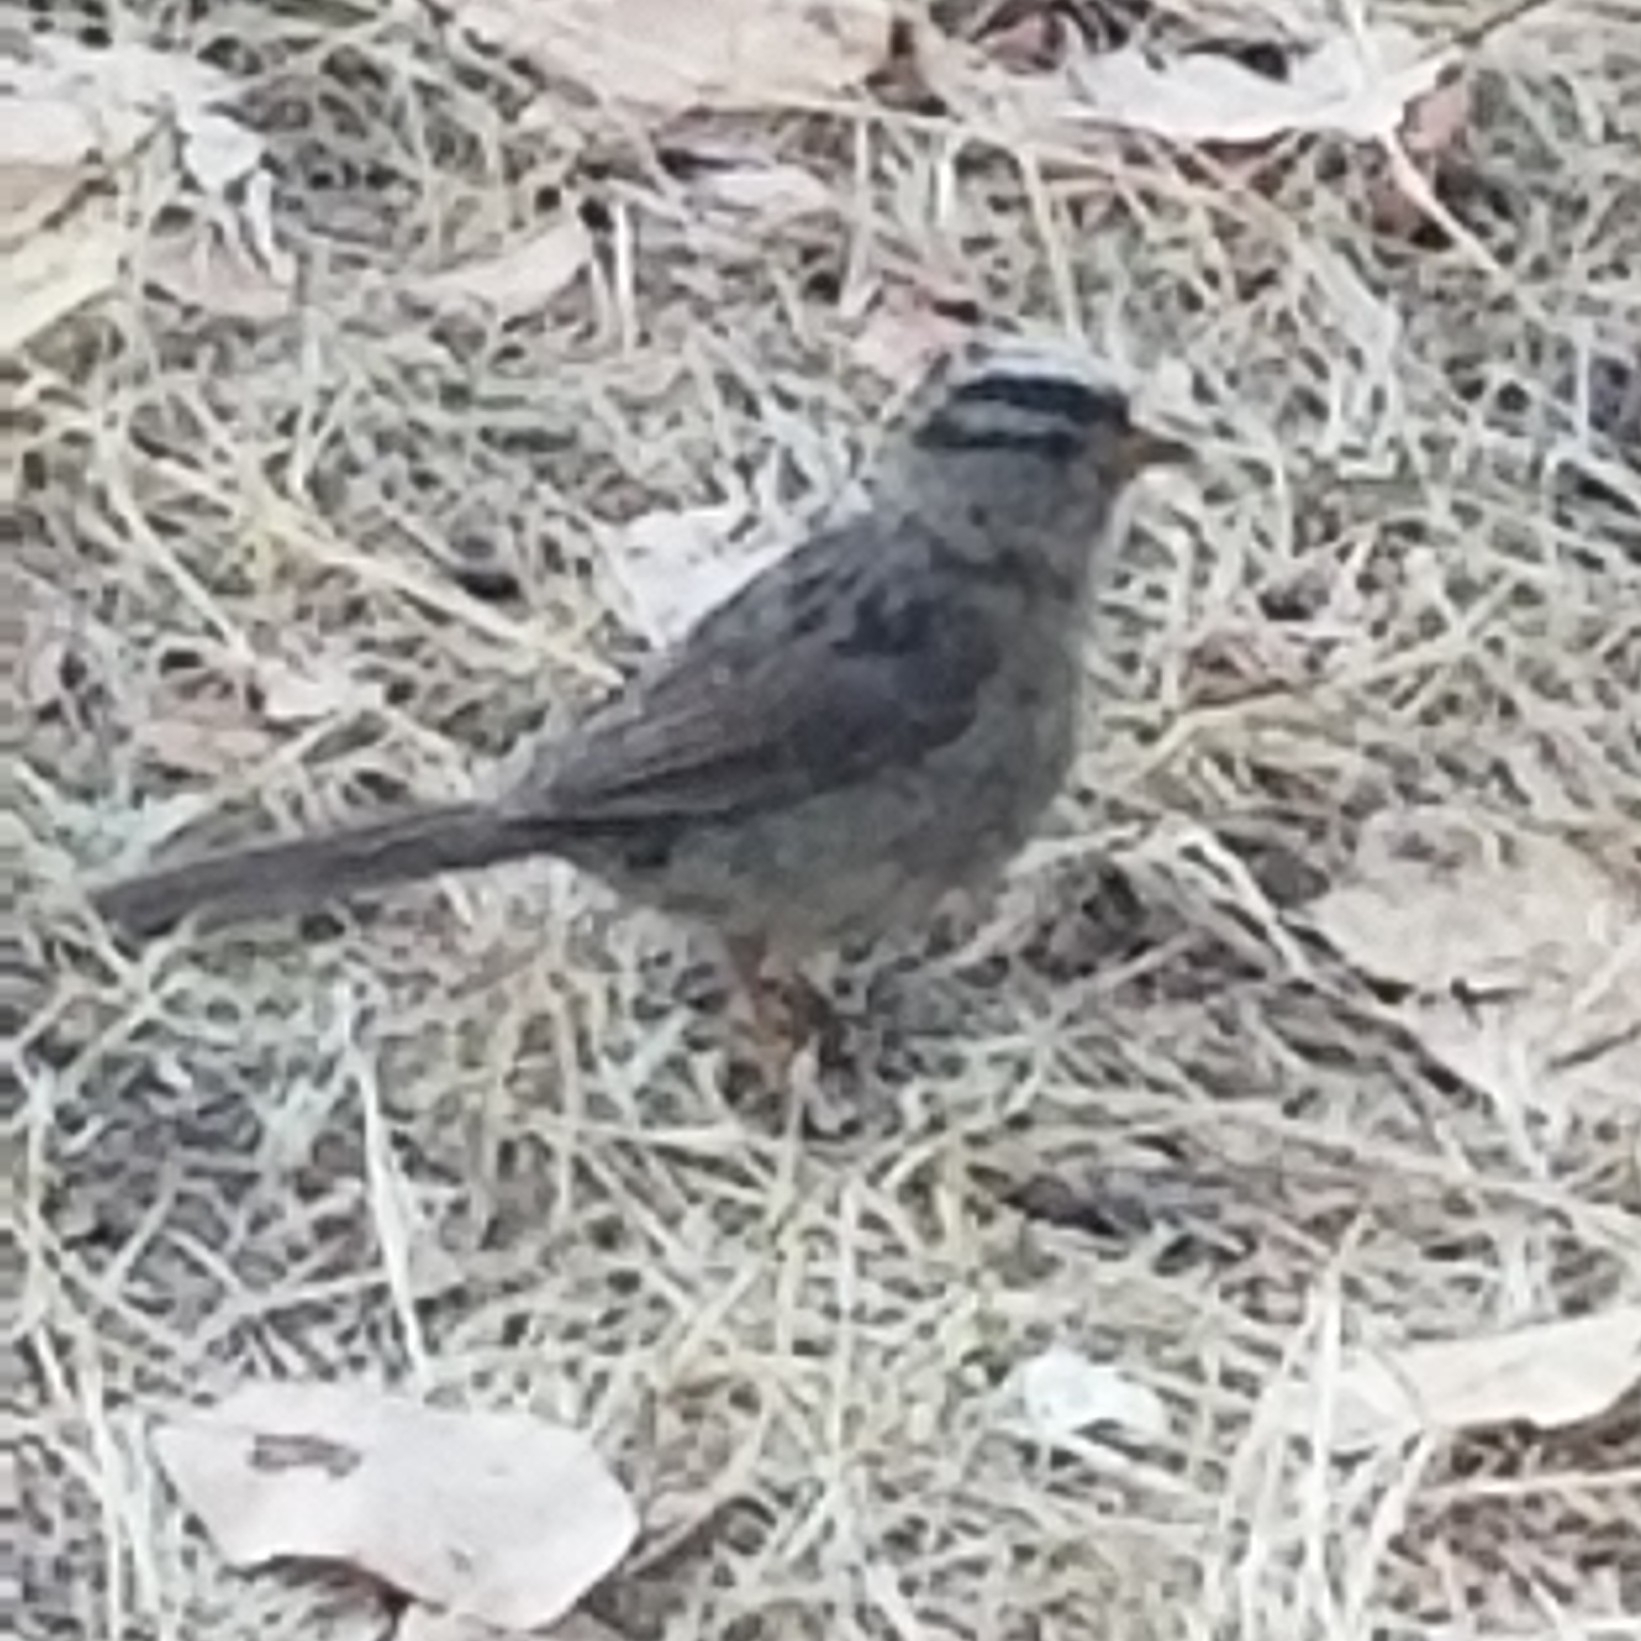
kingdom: Animalia
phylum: Chordata
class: Aves
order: Passeriformes
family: Passerellidae
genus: Zonotrichia
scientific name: Zonotrichia leucophrys
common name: White-crowned sparrow
